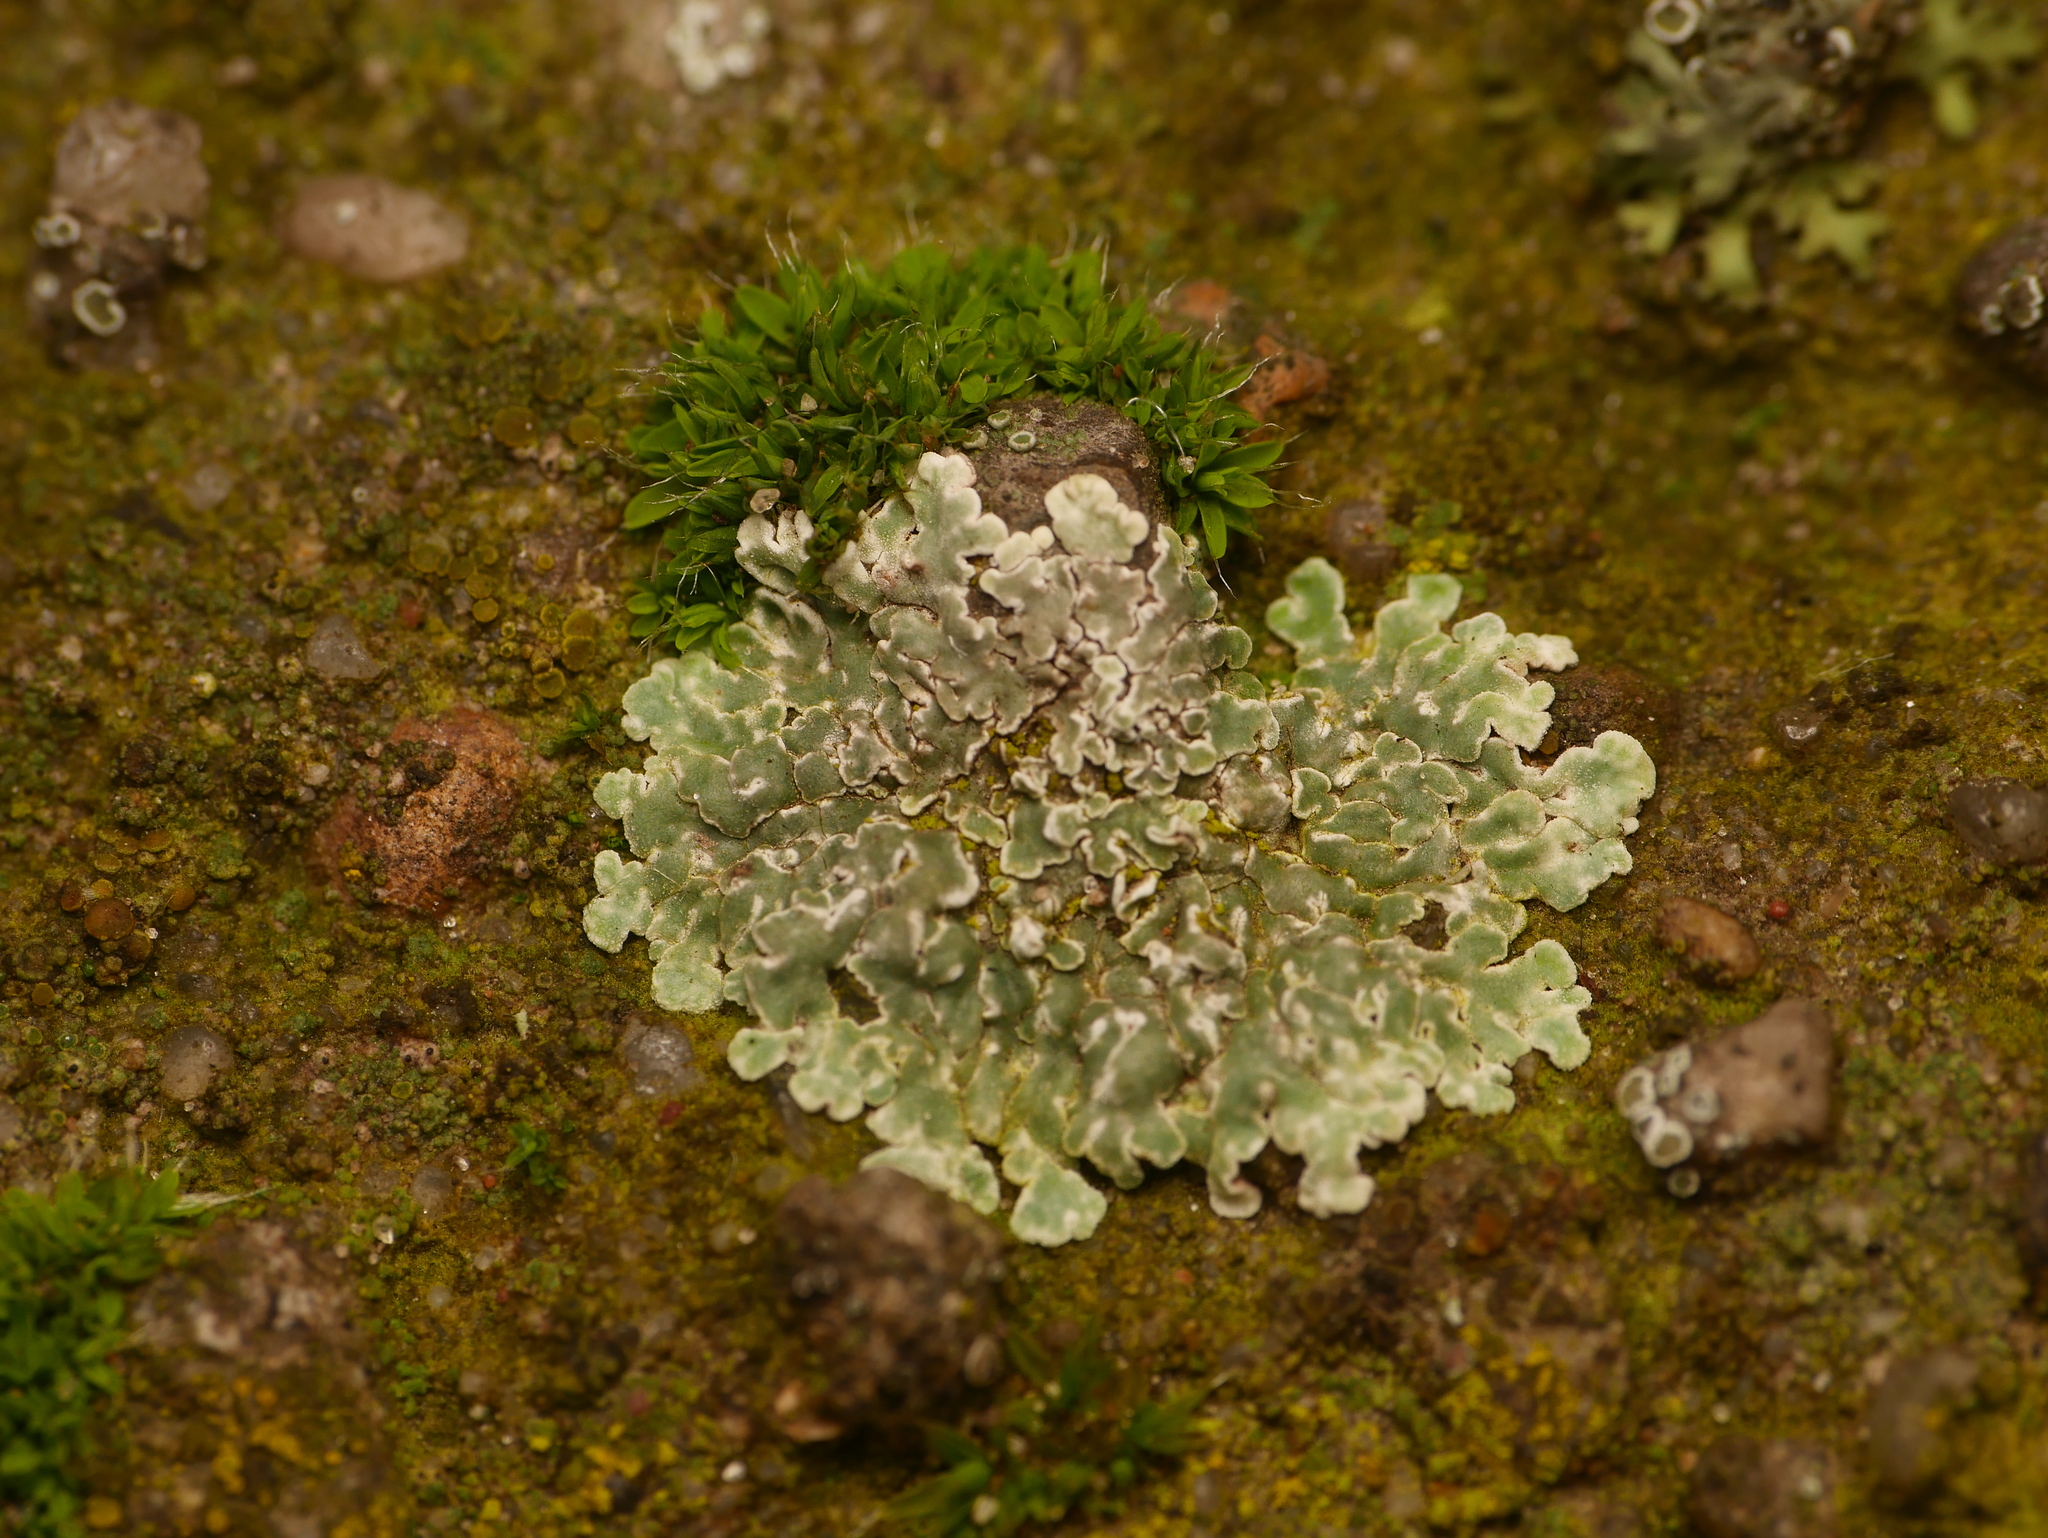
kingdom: Fungi
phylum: Ascomycota
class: Lecanoromycetes
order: Lecanorales
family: Lecanoraceae
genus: Protoparmeliopsis
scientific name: Protoparmeliopsis muralis
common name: Stonewall rim lichen
